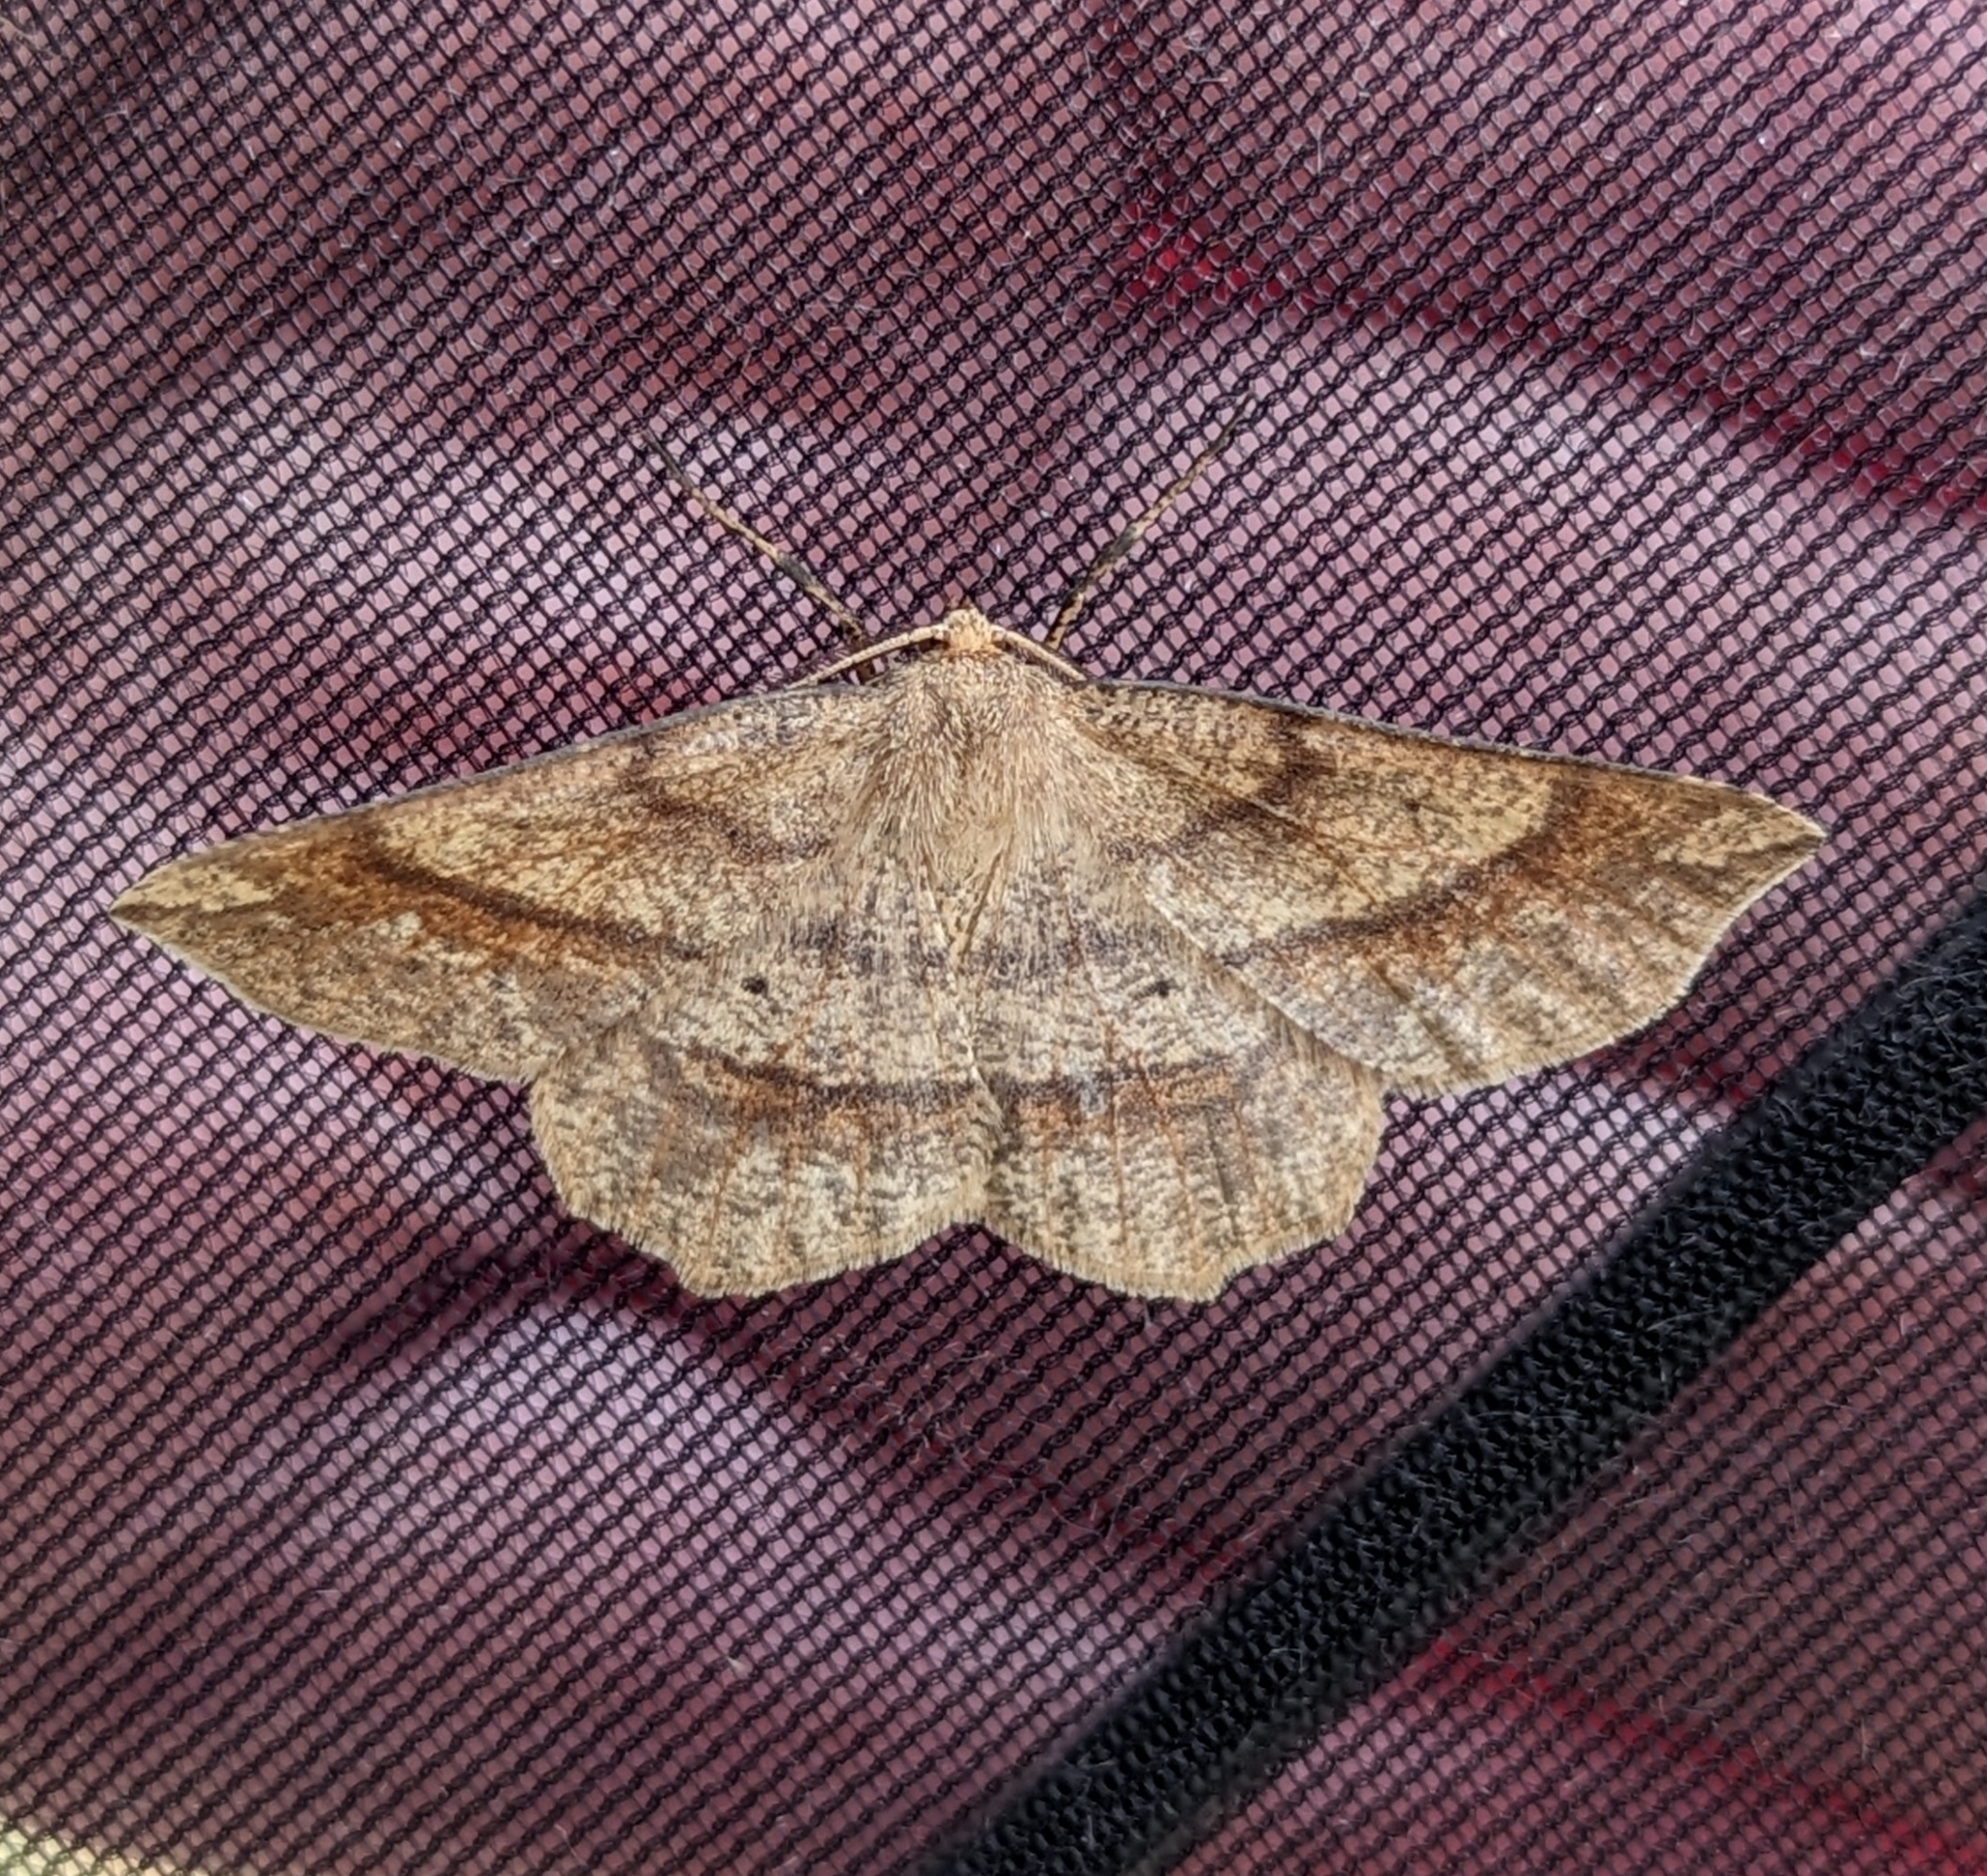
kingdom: Animalia
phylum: Arthropoda
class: Insecta
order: Lepidoptera
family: Geometridae
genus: Euchlaena
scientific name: Euchlaena marginaria
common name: Ochre euchlaena moth
